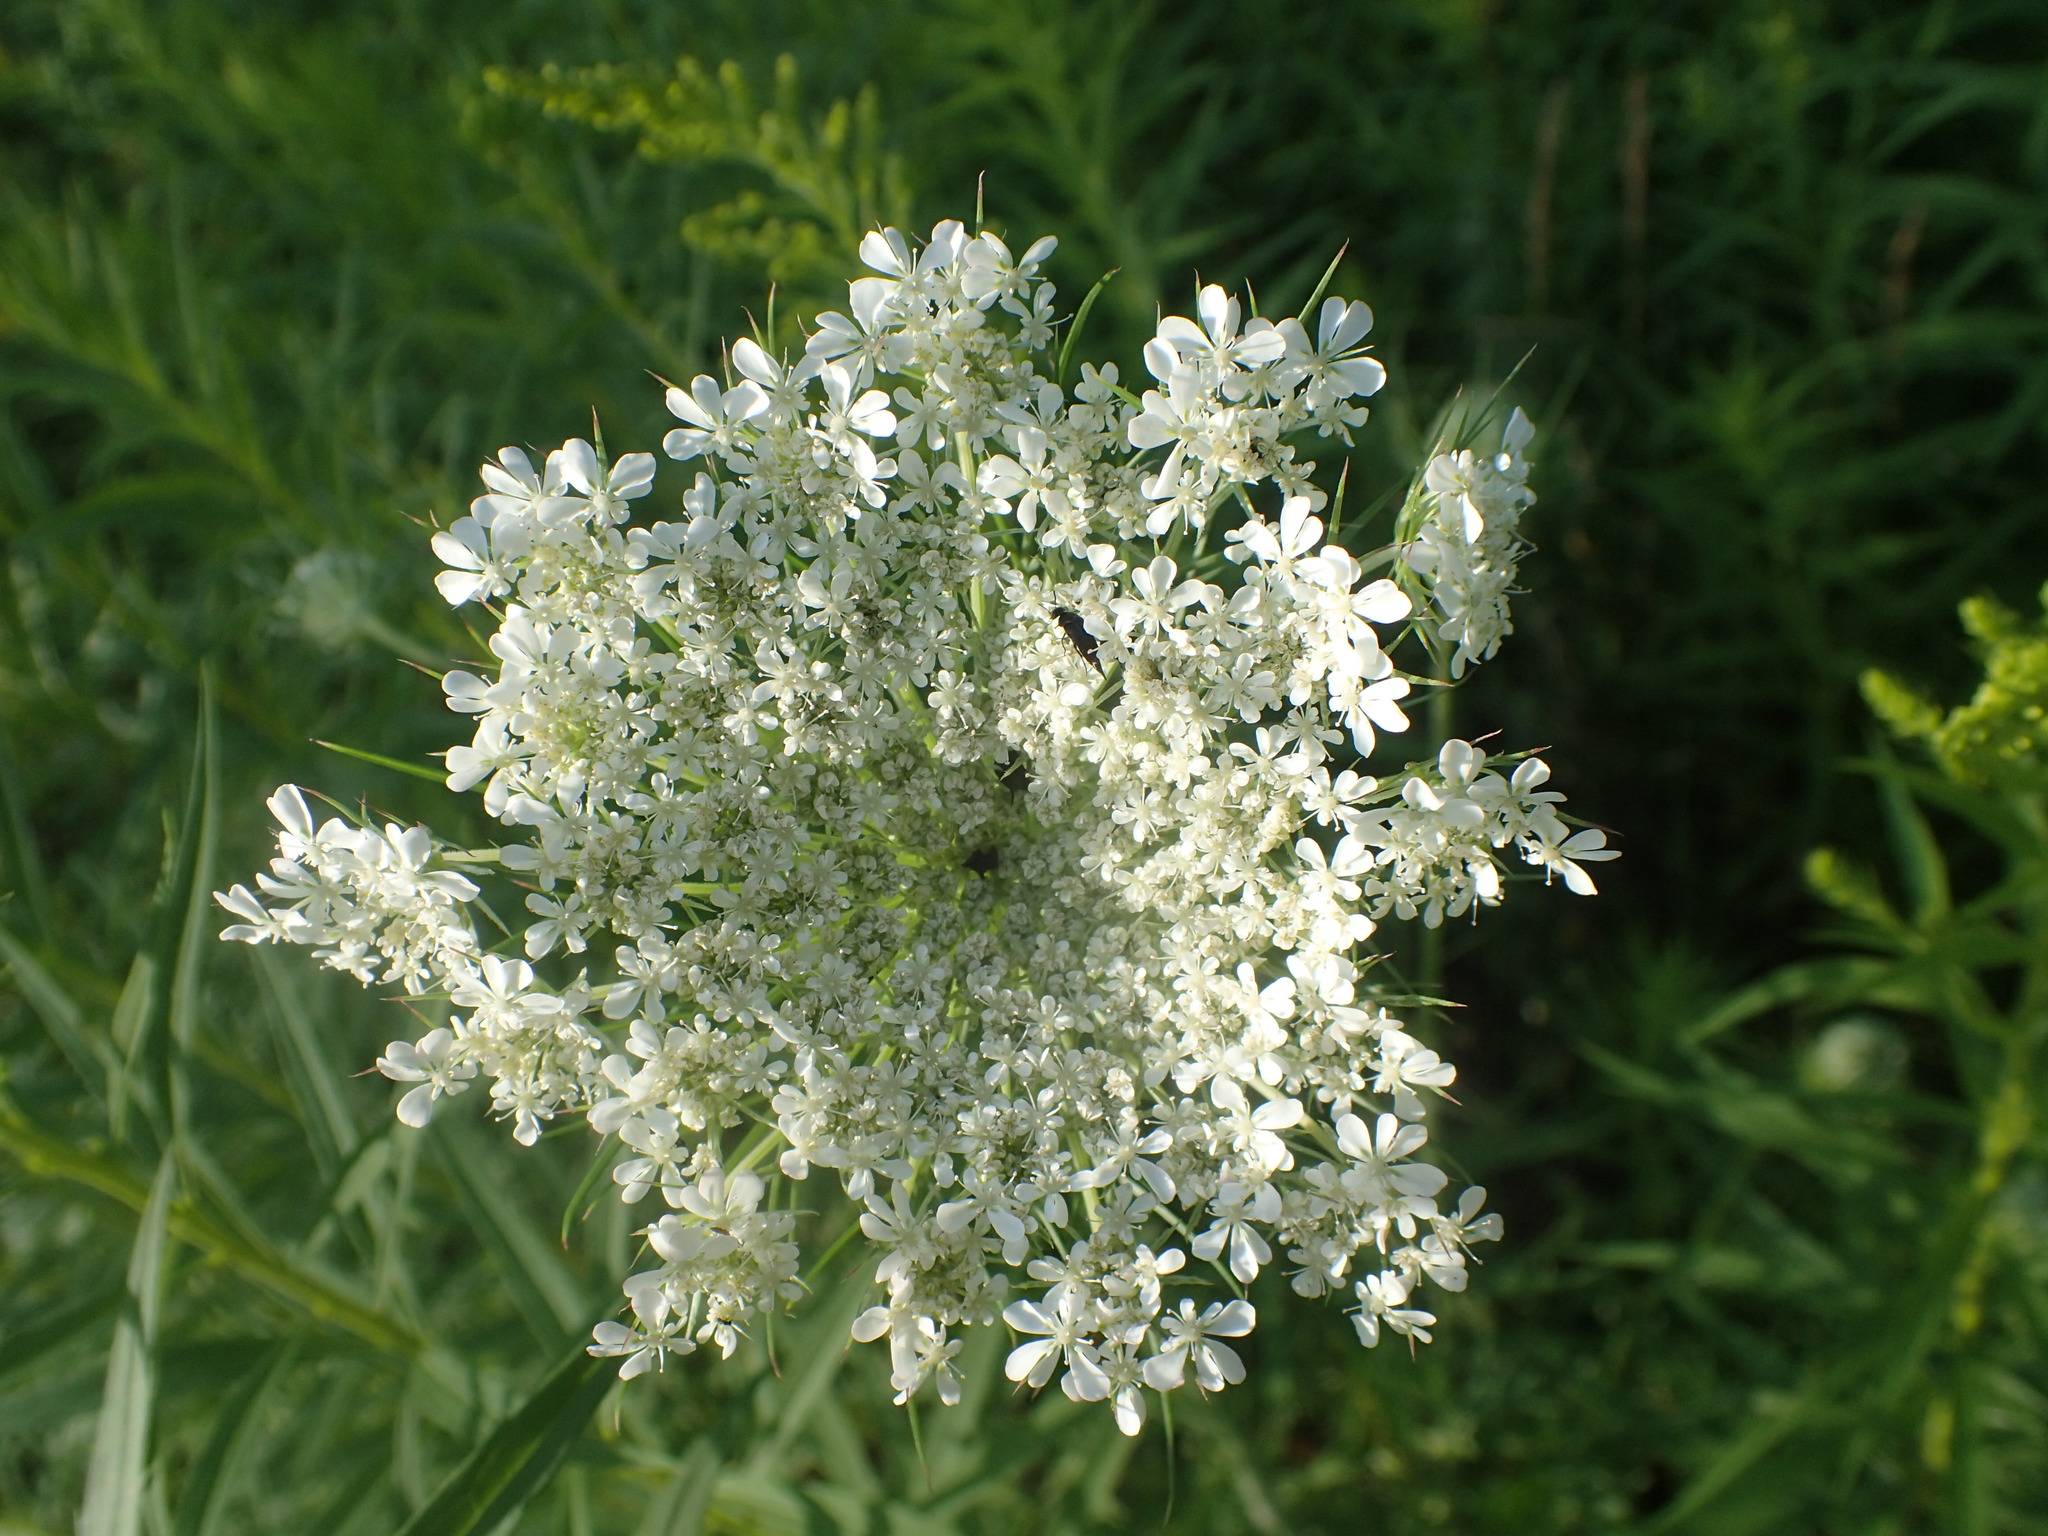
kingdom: Plantae
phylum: Tracheophyta
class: Magnoliopsida
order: Apiales
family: Apiaceae
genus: Daucus
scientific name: Daucus carota
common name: Wild carrot
